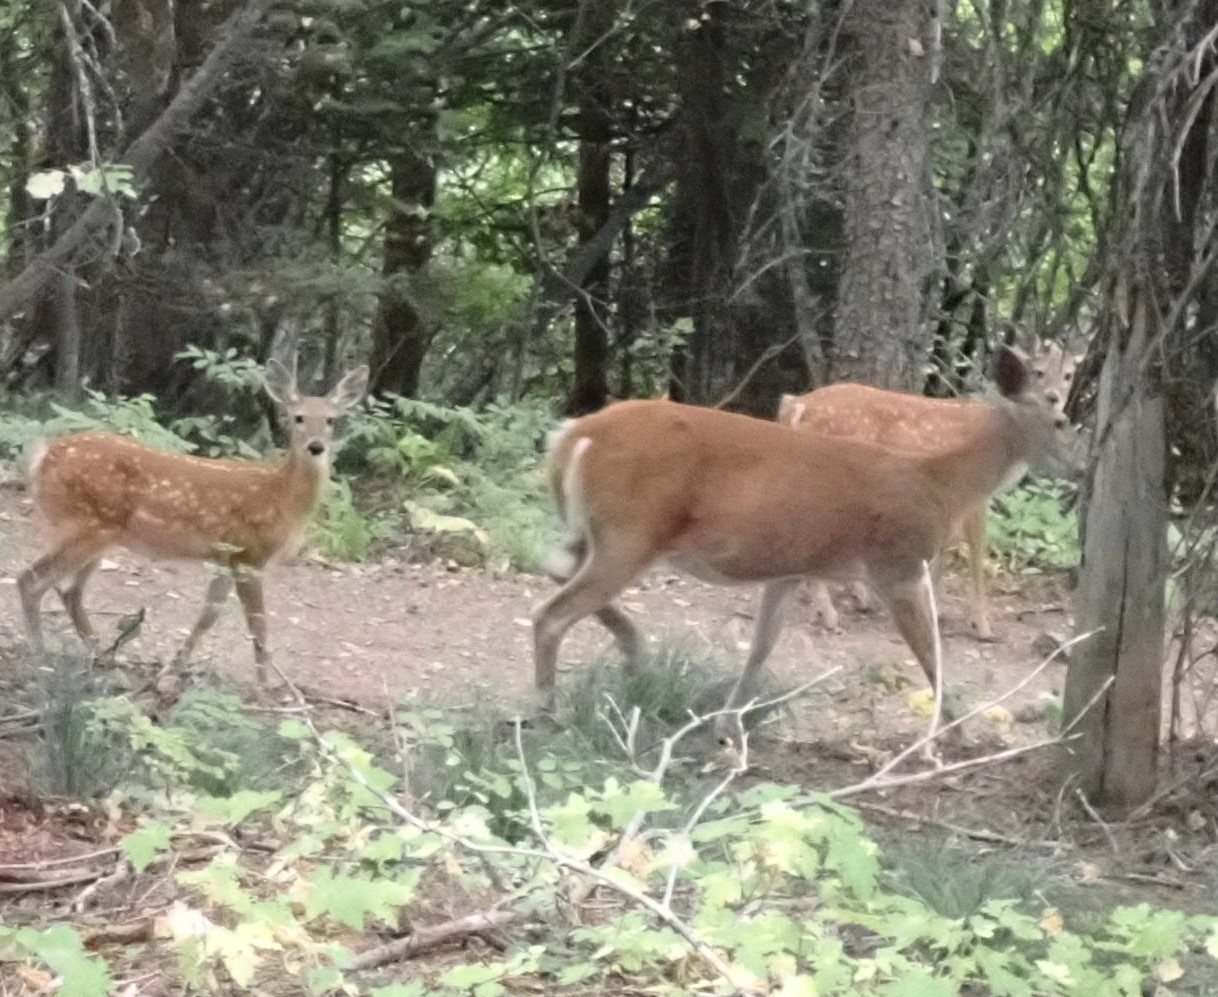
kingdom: Animalia
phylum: Chordata
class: Mammalia
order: Artiodactyla
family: Cervidae
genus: Odocoileus
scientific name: Odocoileus virginianus
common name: White-tailed deer
